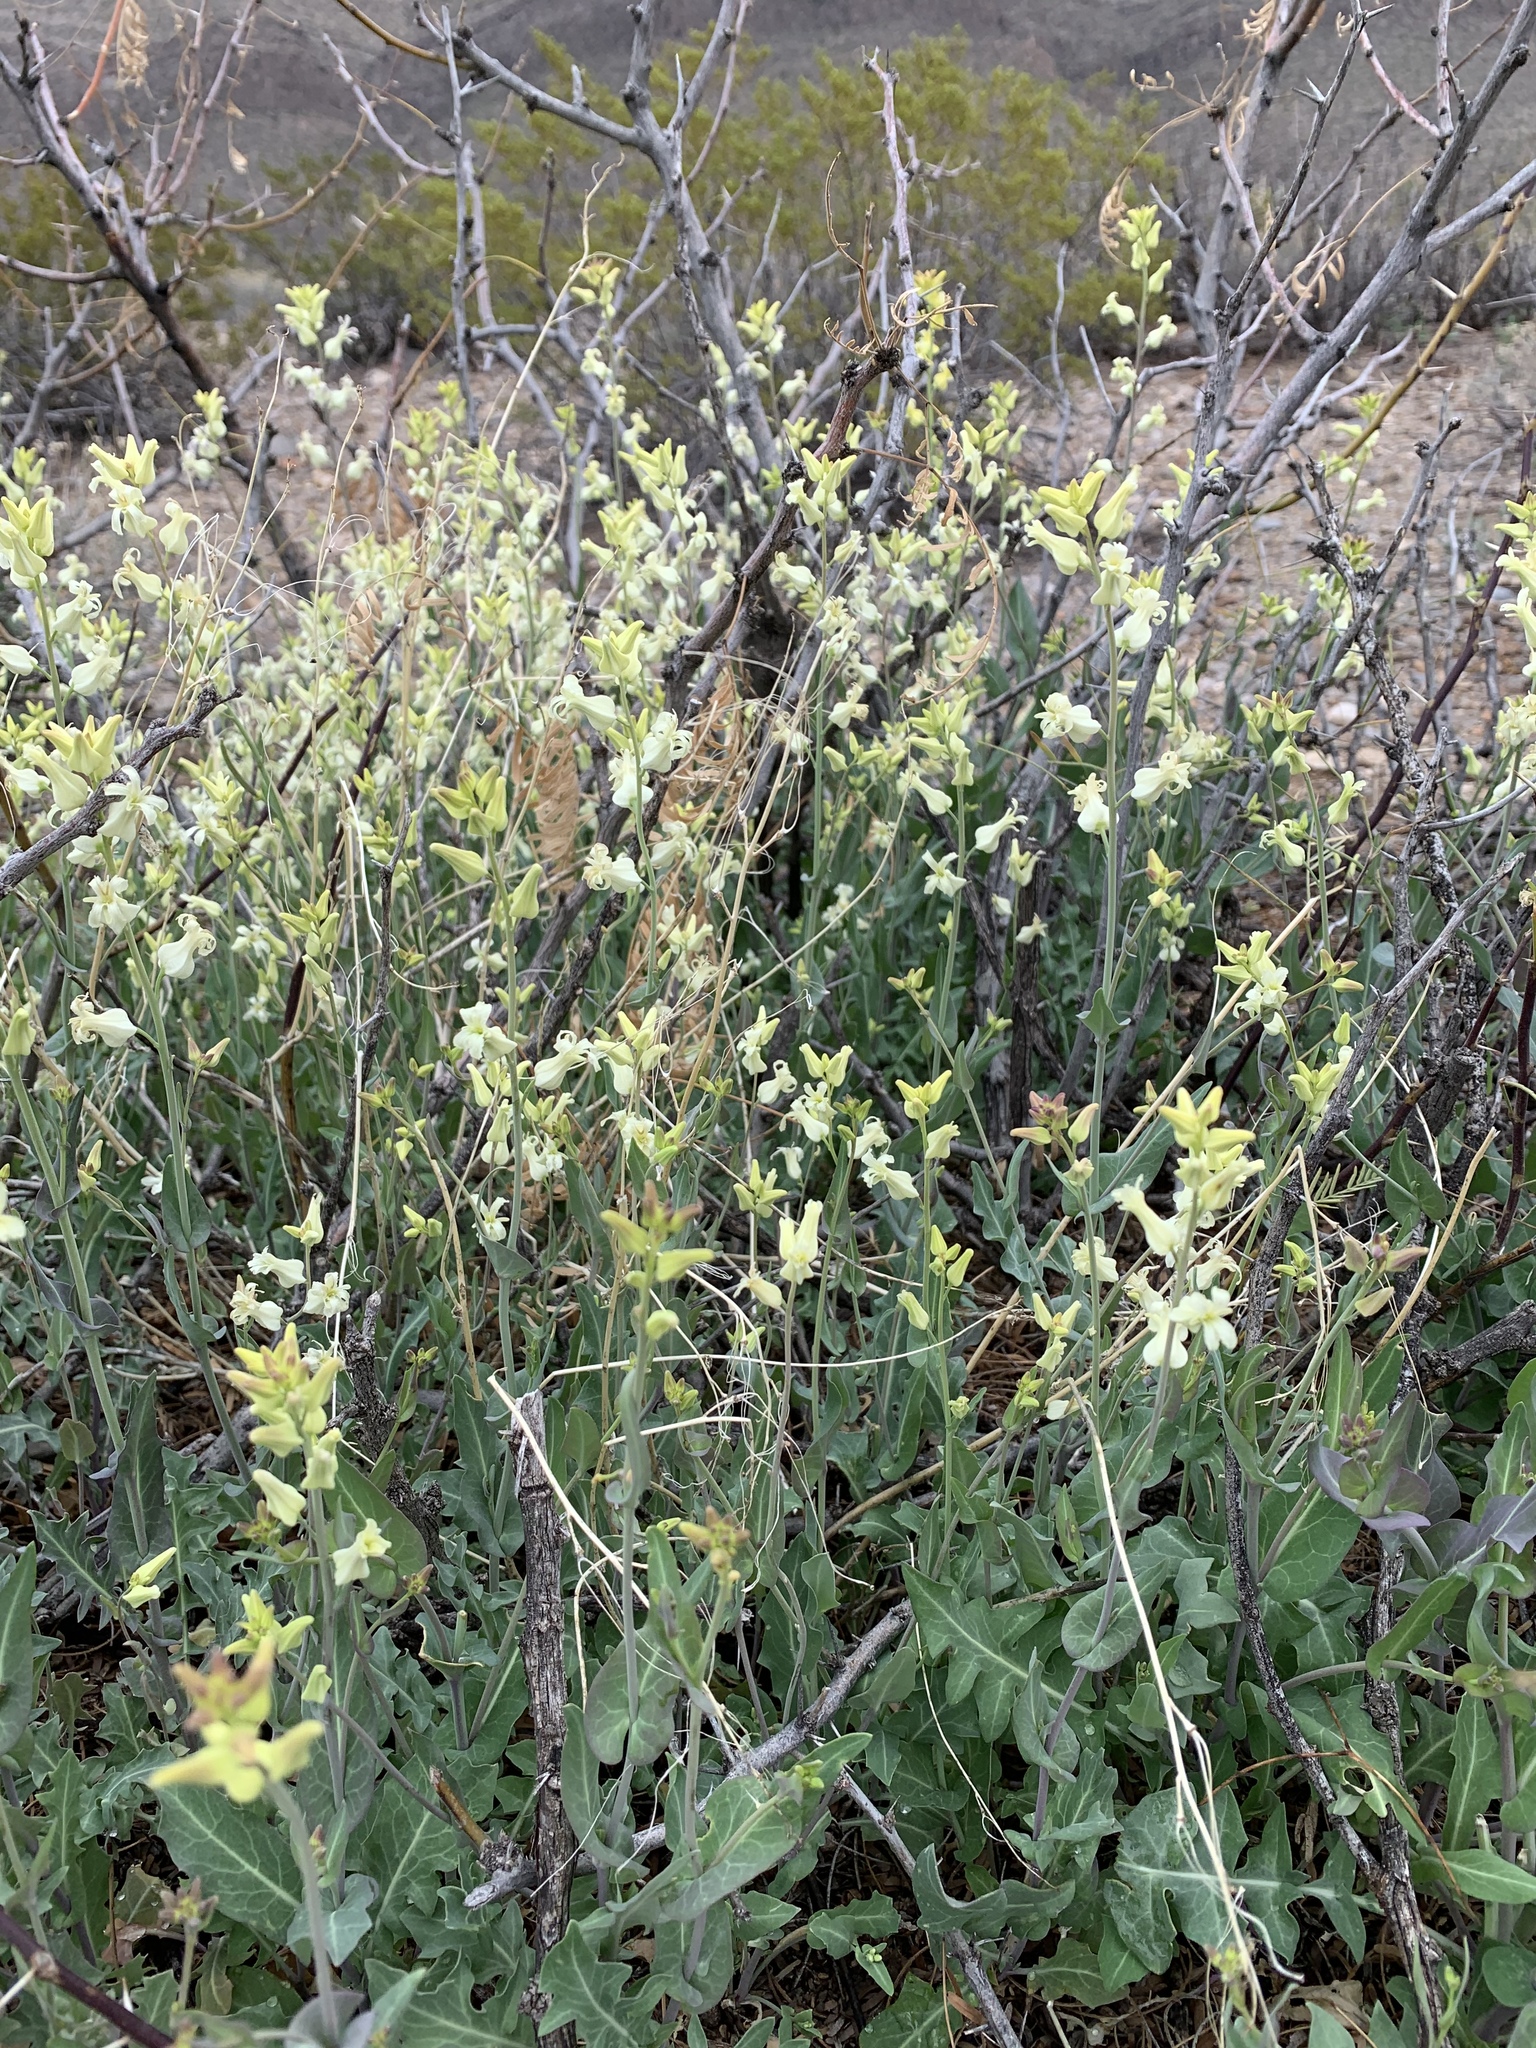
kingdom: Plantae
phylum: Tracheophyta
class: Magnoliopsida
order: Brassicales
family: Brassicaceae
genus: Streptanthus
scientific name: Streptanthus carinatus
